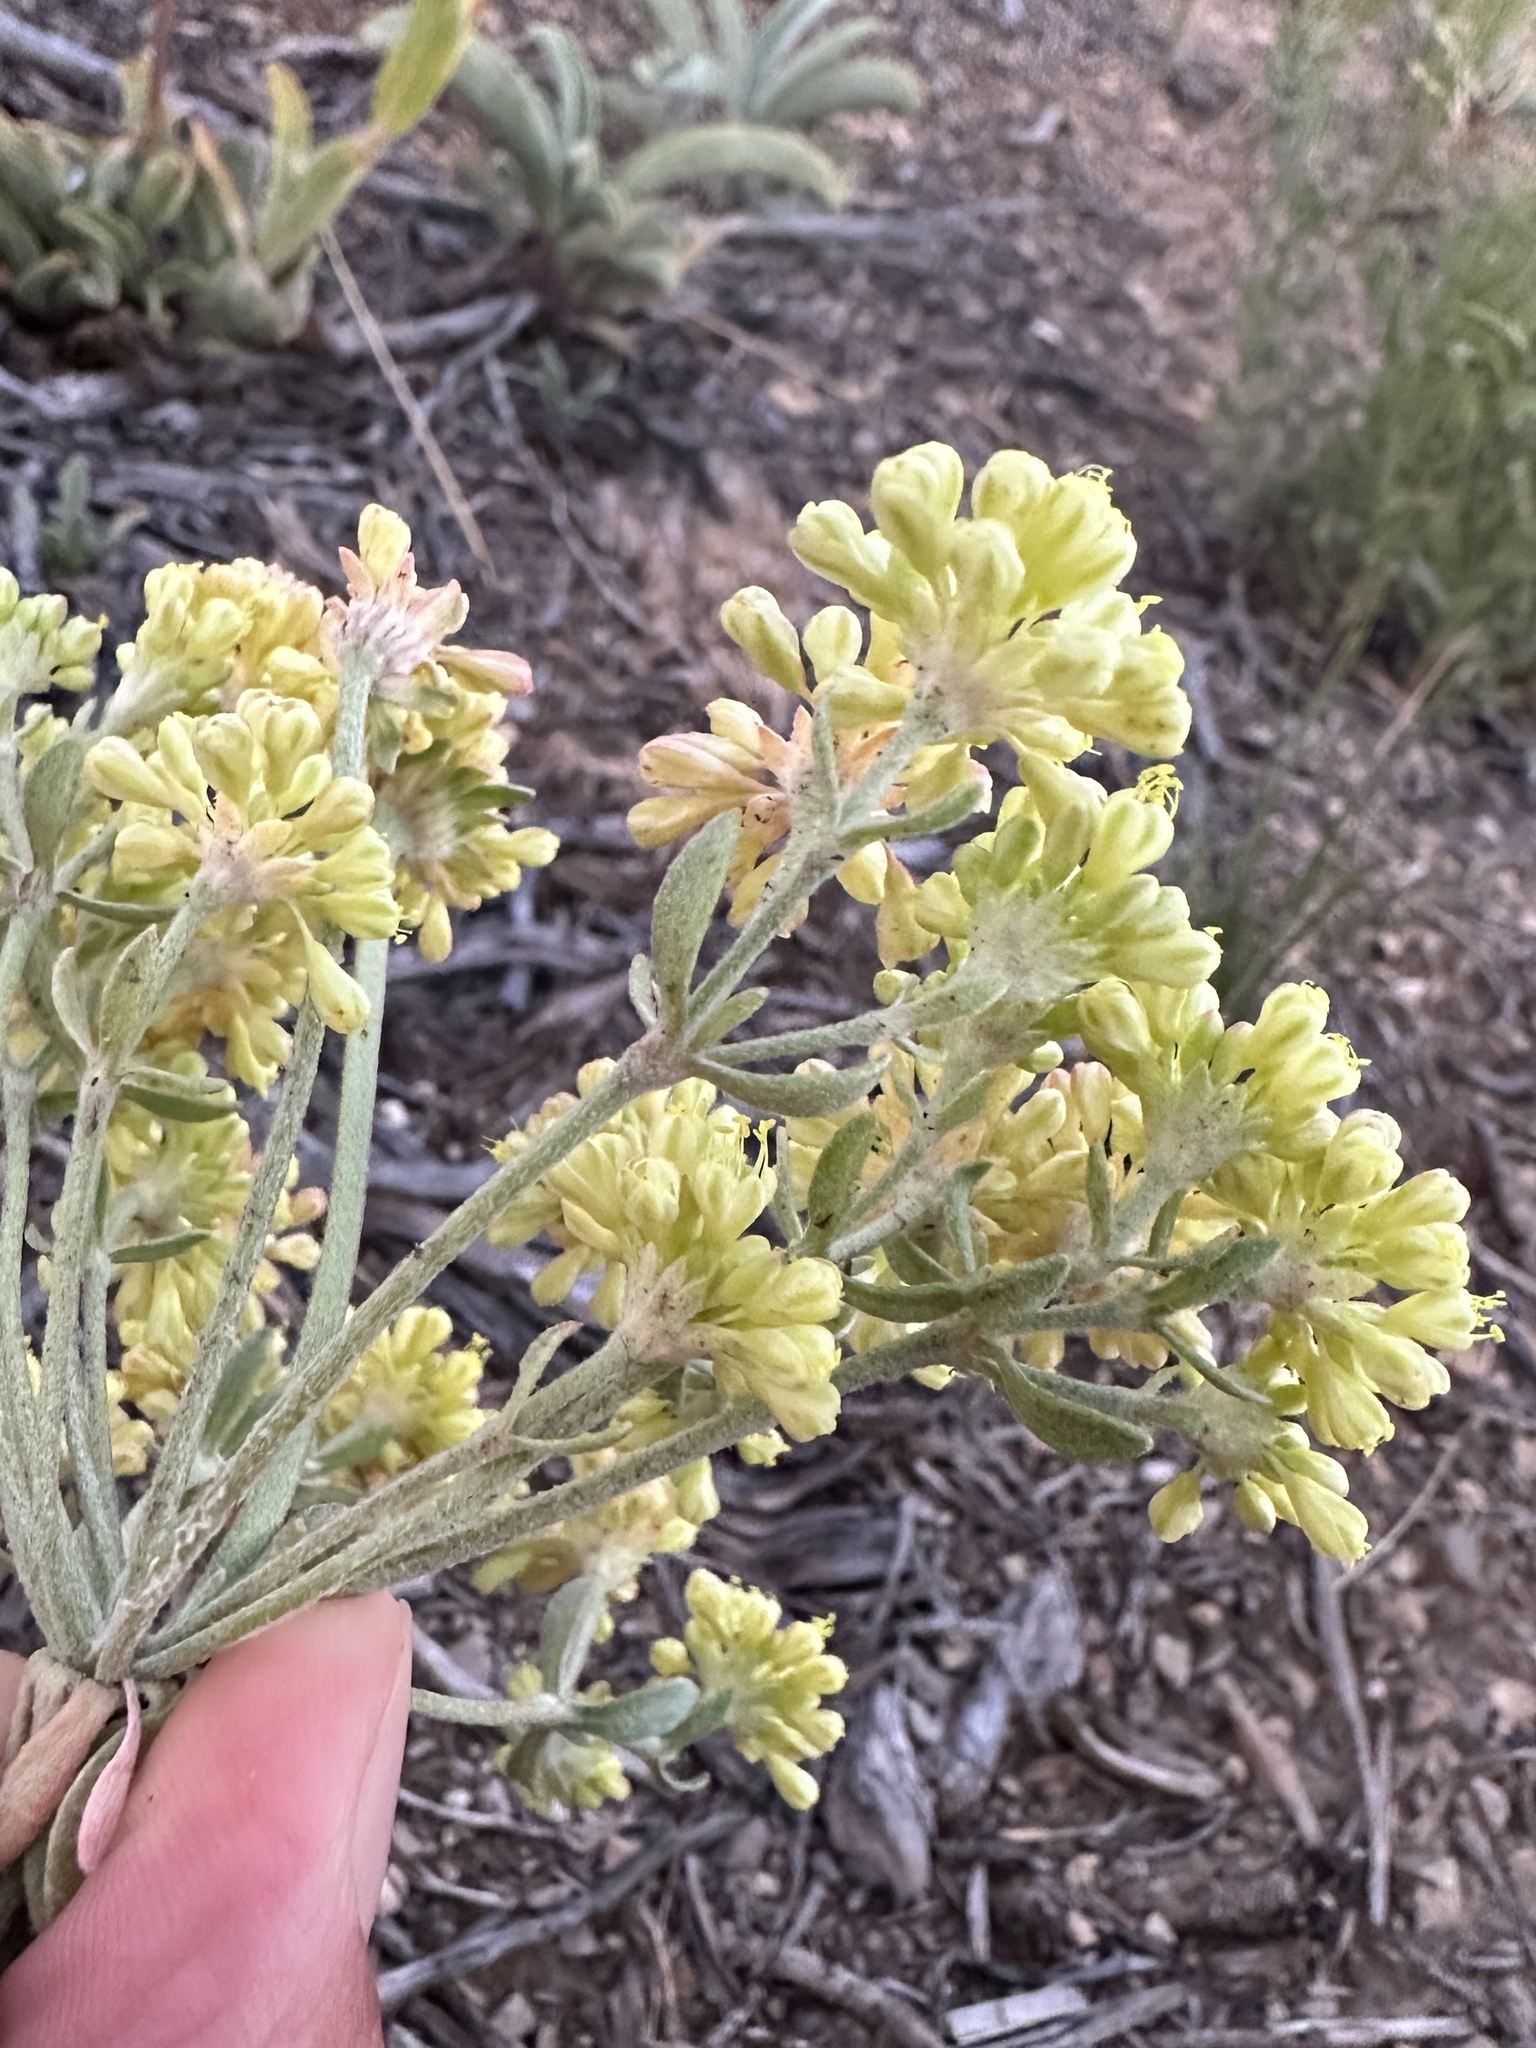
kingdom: Plantae
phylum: Tracheophyta
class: Magnoliopsida
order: Caryophyllales
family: Polygonaceae
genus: Eriogonum
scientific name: Eriogonum umbellatum
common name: Sulfur-buckwheat
